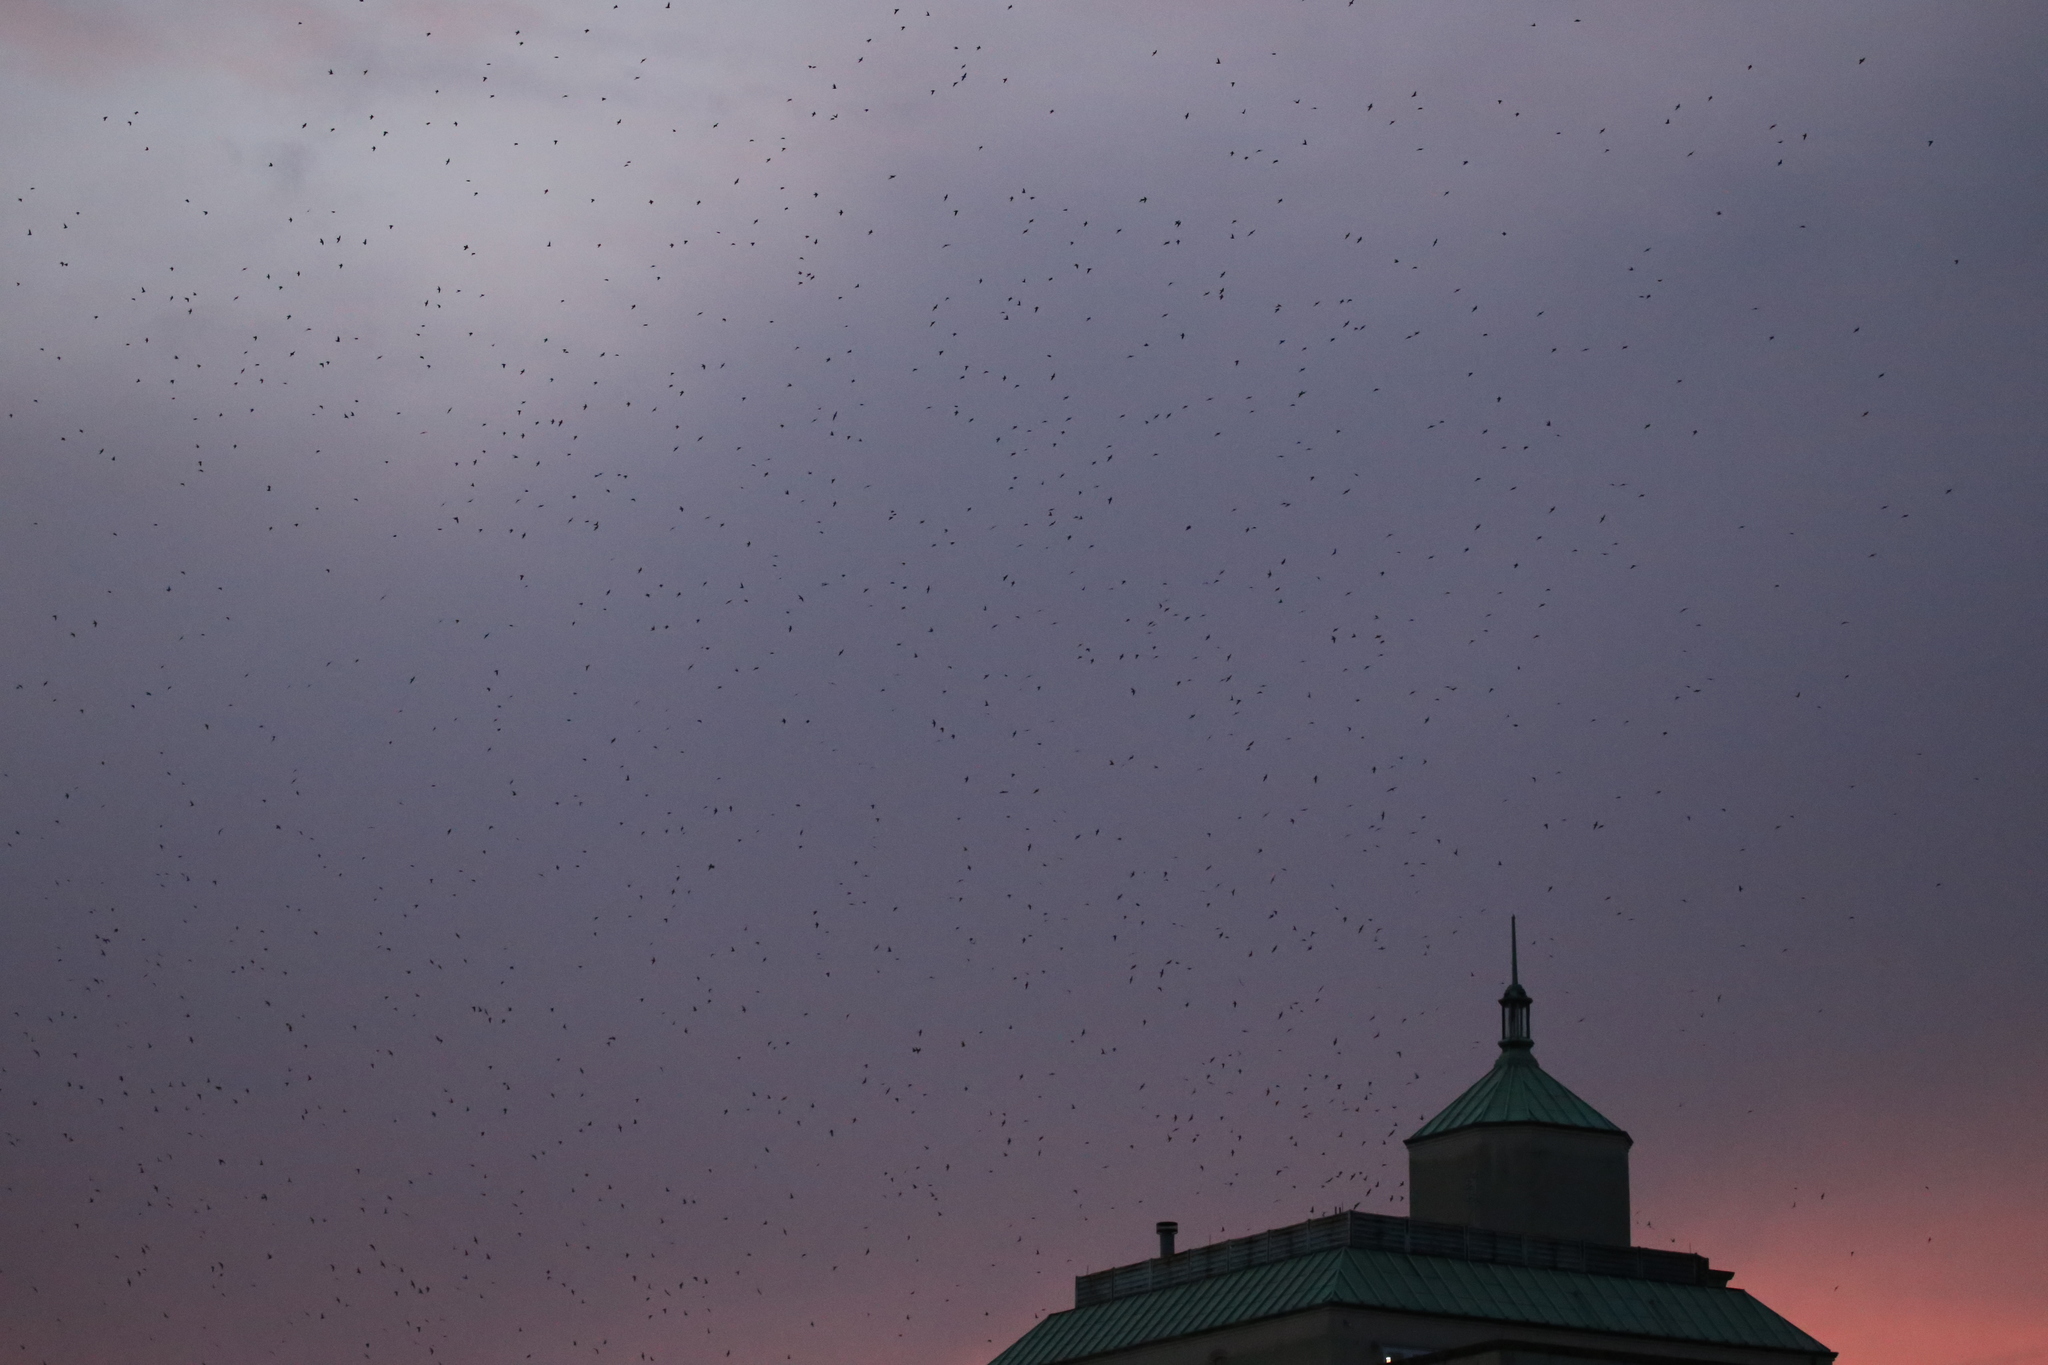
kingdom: Animalia
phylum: Chordata
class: Aves
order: Apodiformes
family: Apodidae
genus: Chaetura
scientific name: Chaetura pelagica
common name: Chimney swift
